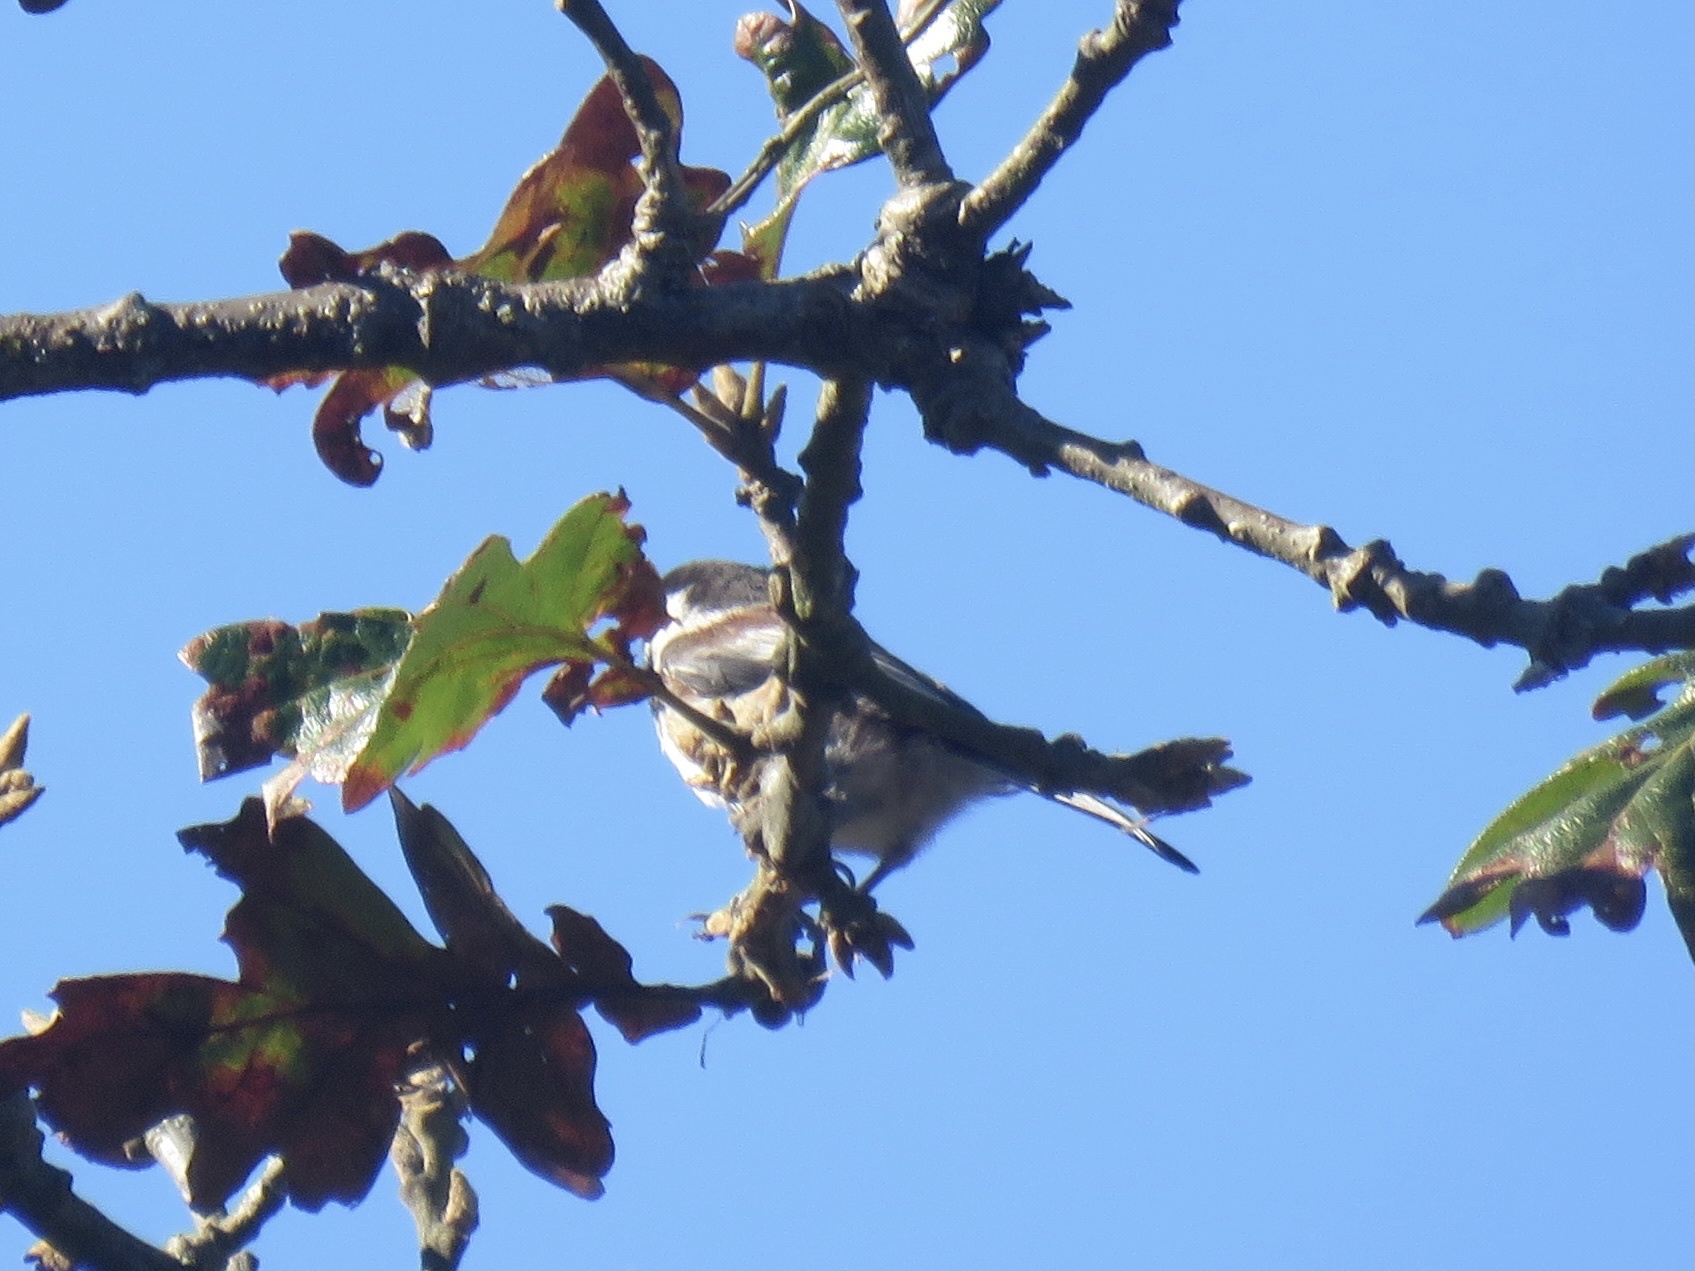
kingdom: Animalia
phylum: Chordata
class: Aves
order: Passeriformes
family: Paridae
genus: Poecile
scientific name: Poecile rufescens
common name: Chestnut-backed chickadee
